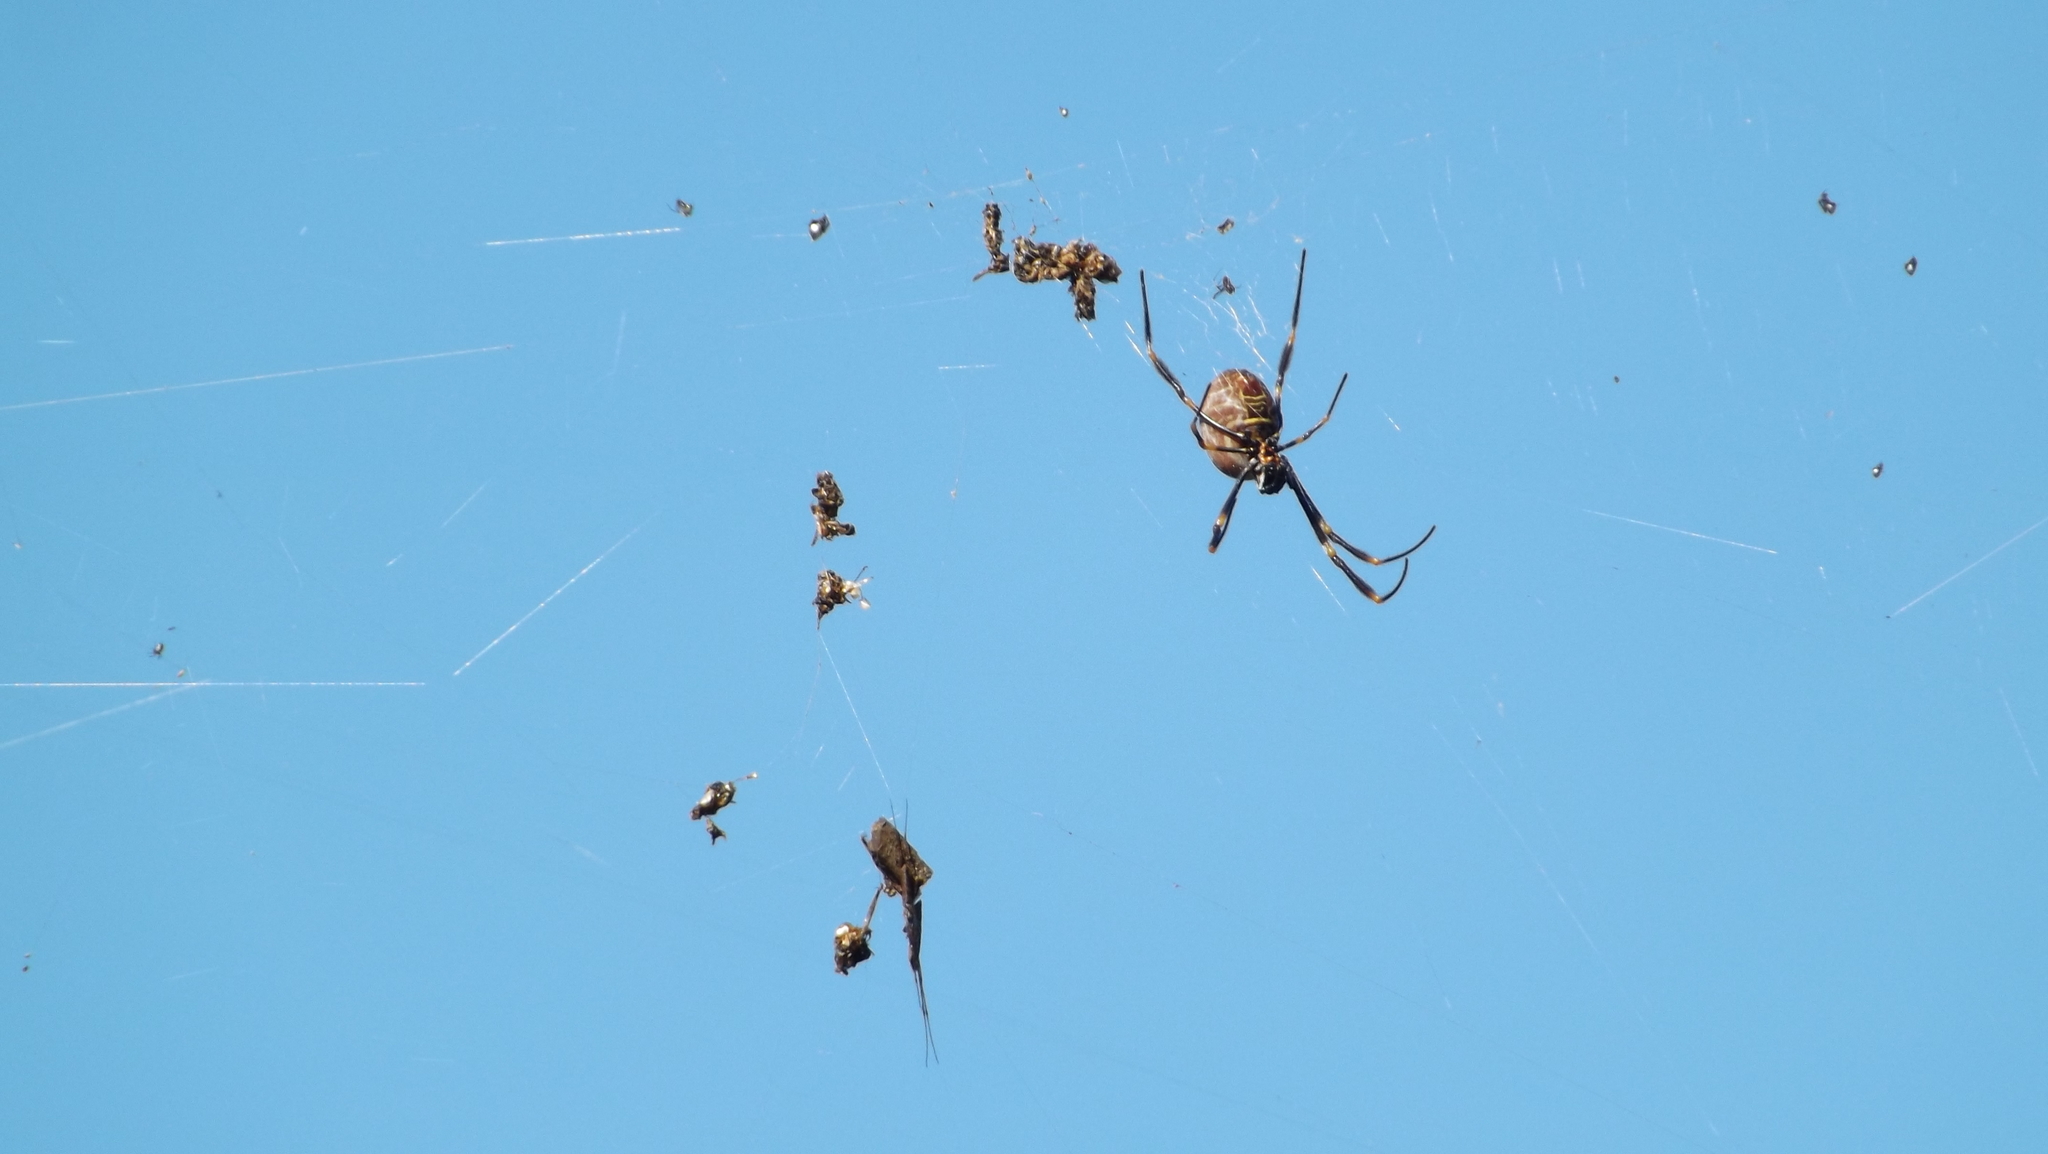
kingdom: Animalia
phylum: Arthropoda
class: Arachnida
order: Araneae
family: Araneidae
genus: Trichonephila
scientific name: Trichonephila plumipes
